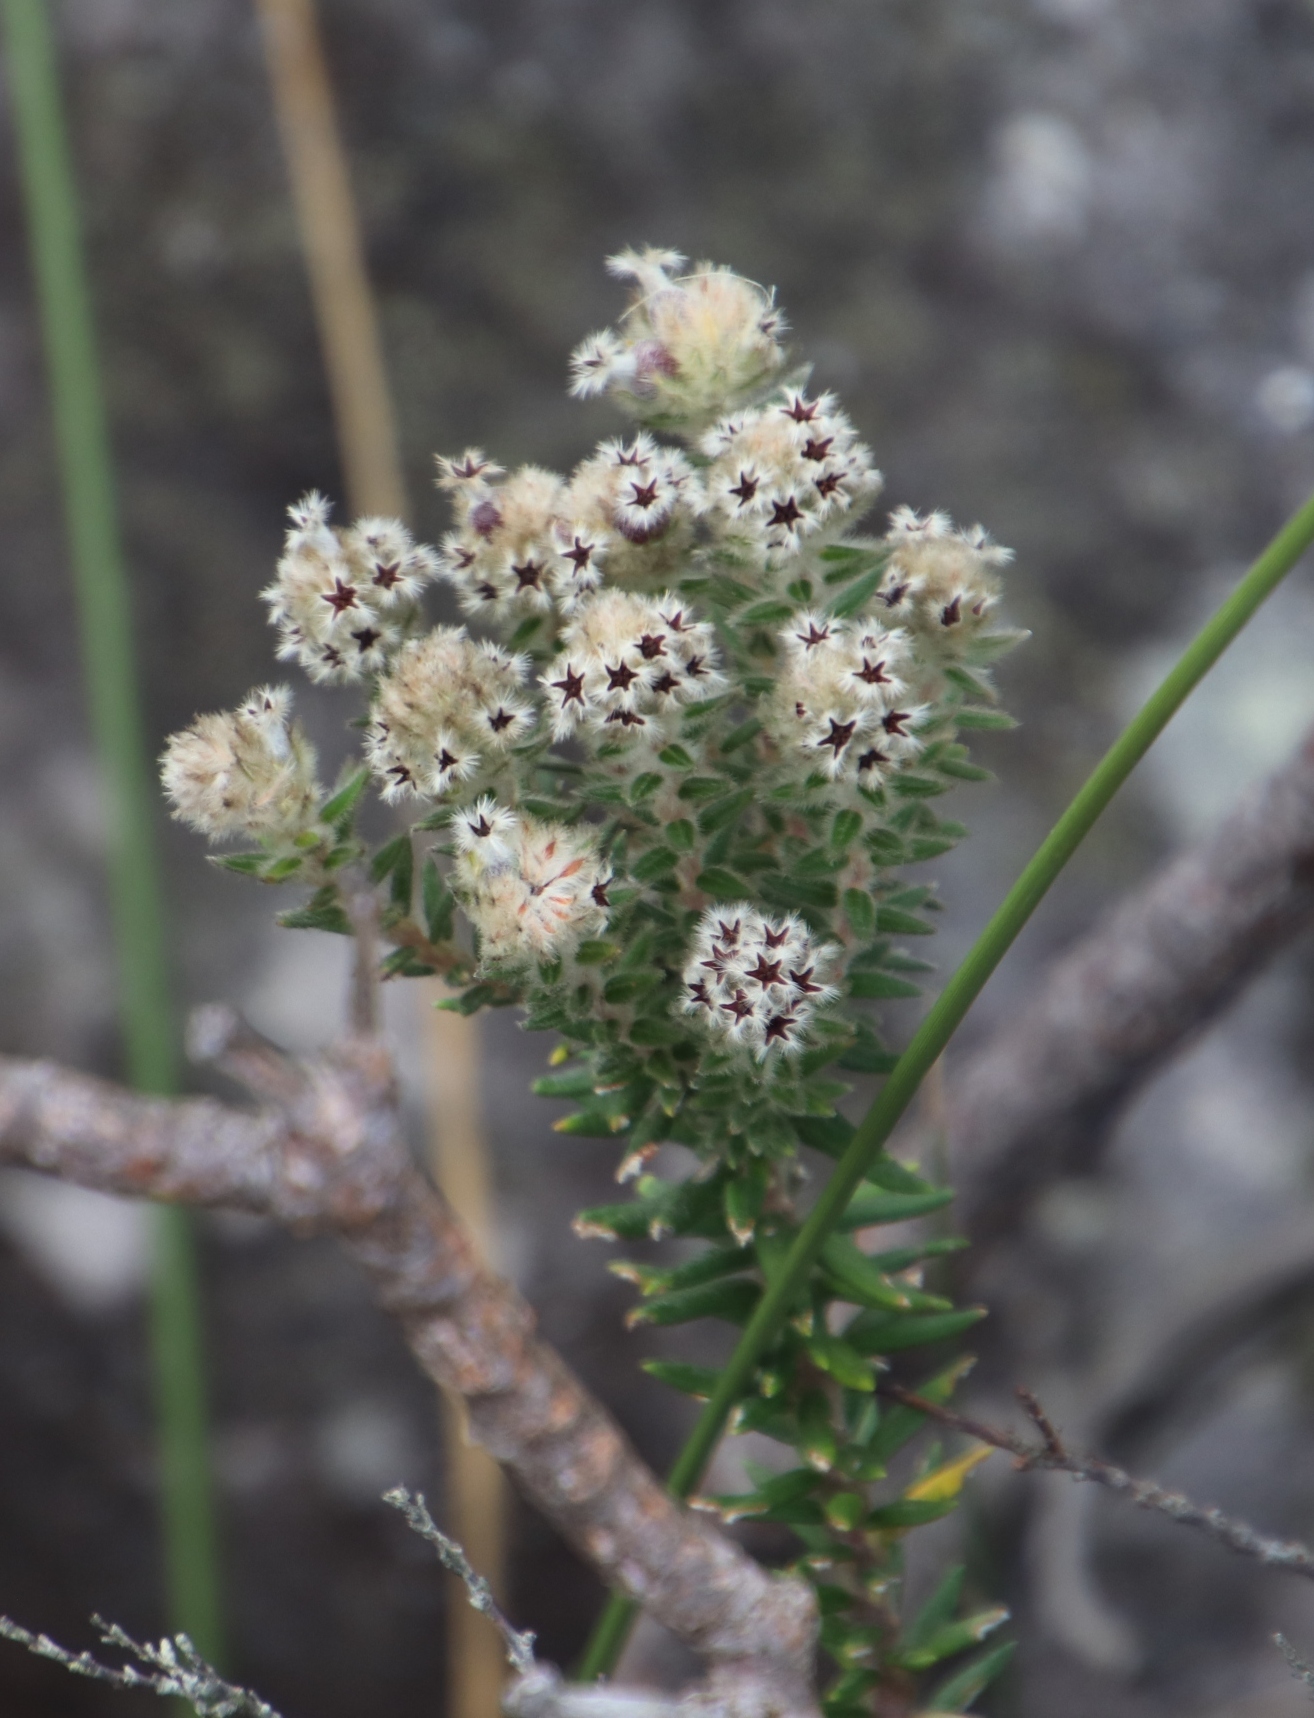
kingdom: Plantae
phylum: Tracheophyta
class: Magnoliopsida
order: Rosales
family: Rhamnaceae
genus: Phylica
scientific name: Phylica strigosa
